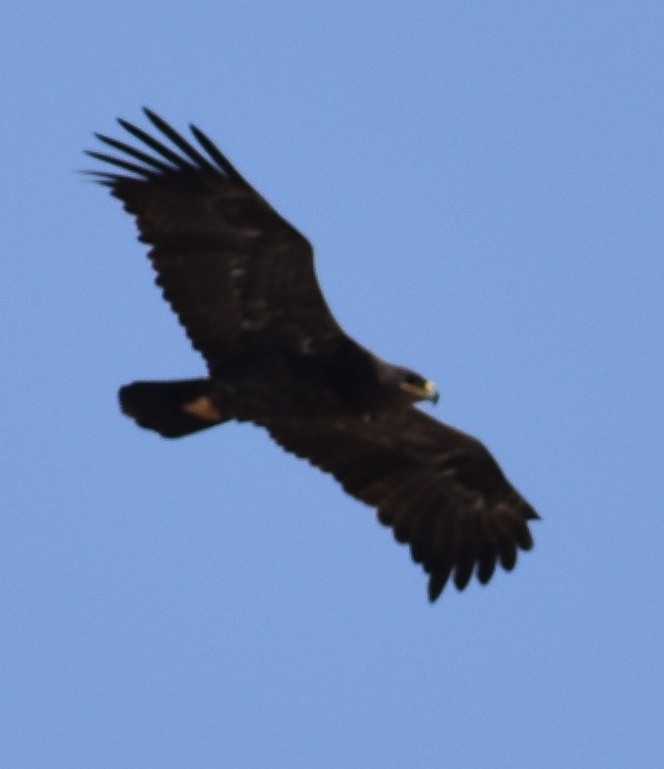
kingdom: Animalia
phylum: Chordata
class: Aves
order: Accipitriformes
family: Accipitridae
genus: Aquila
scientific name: Aquila nipalensis
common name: Steppe eagle
